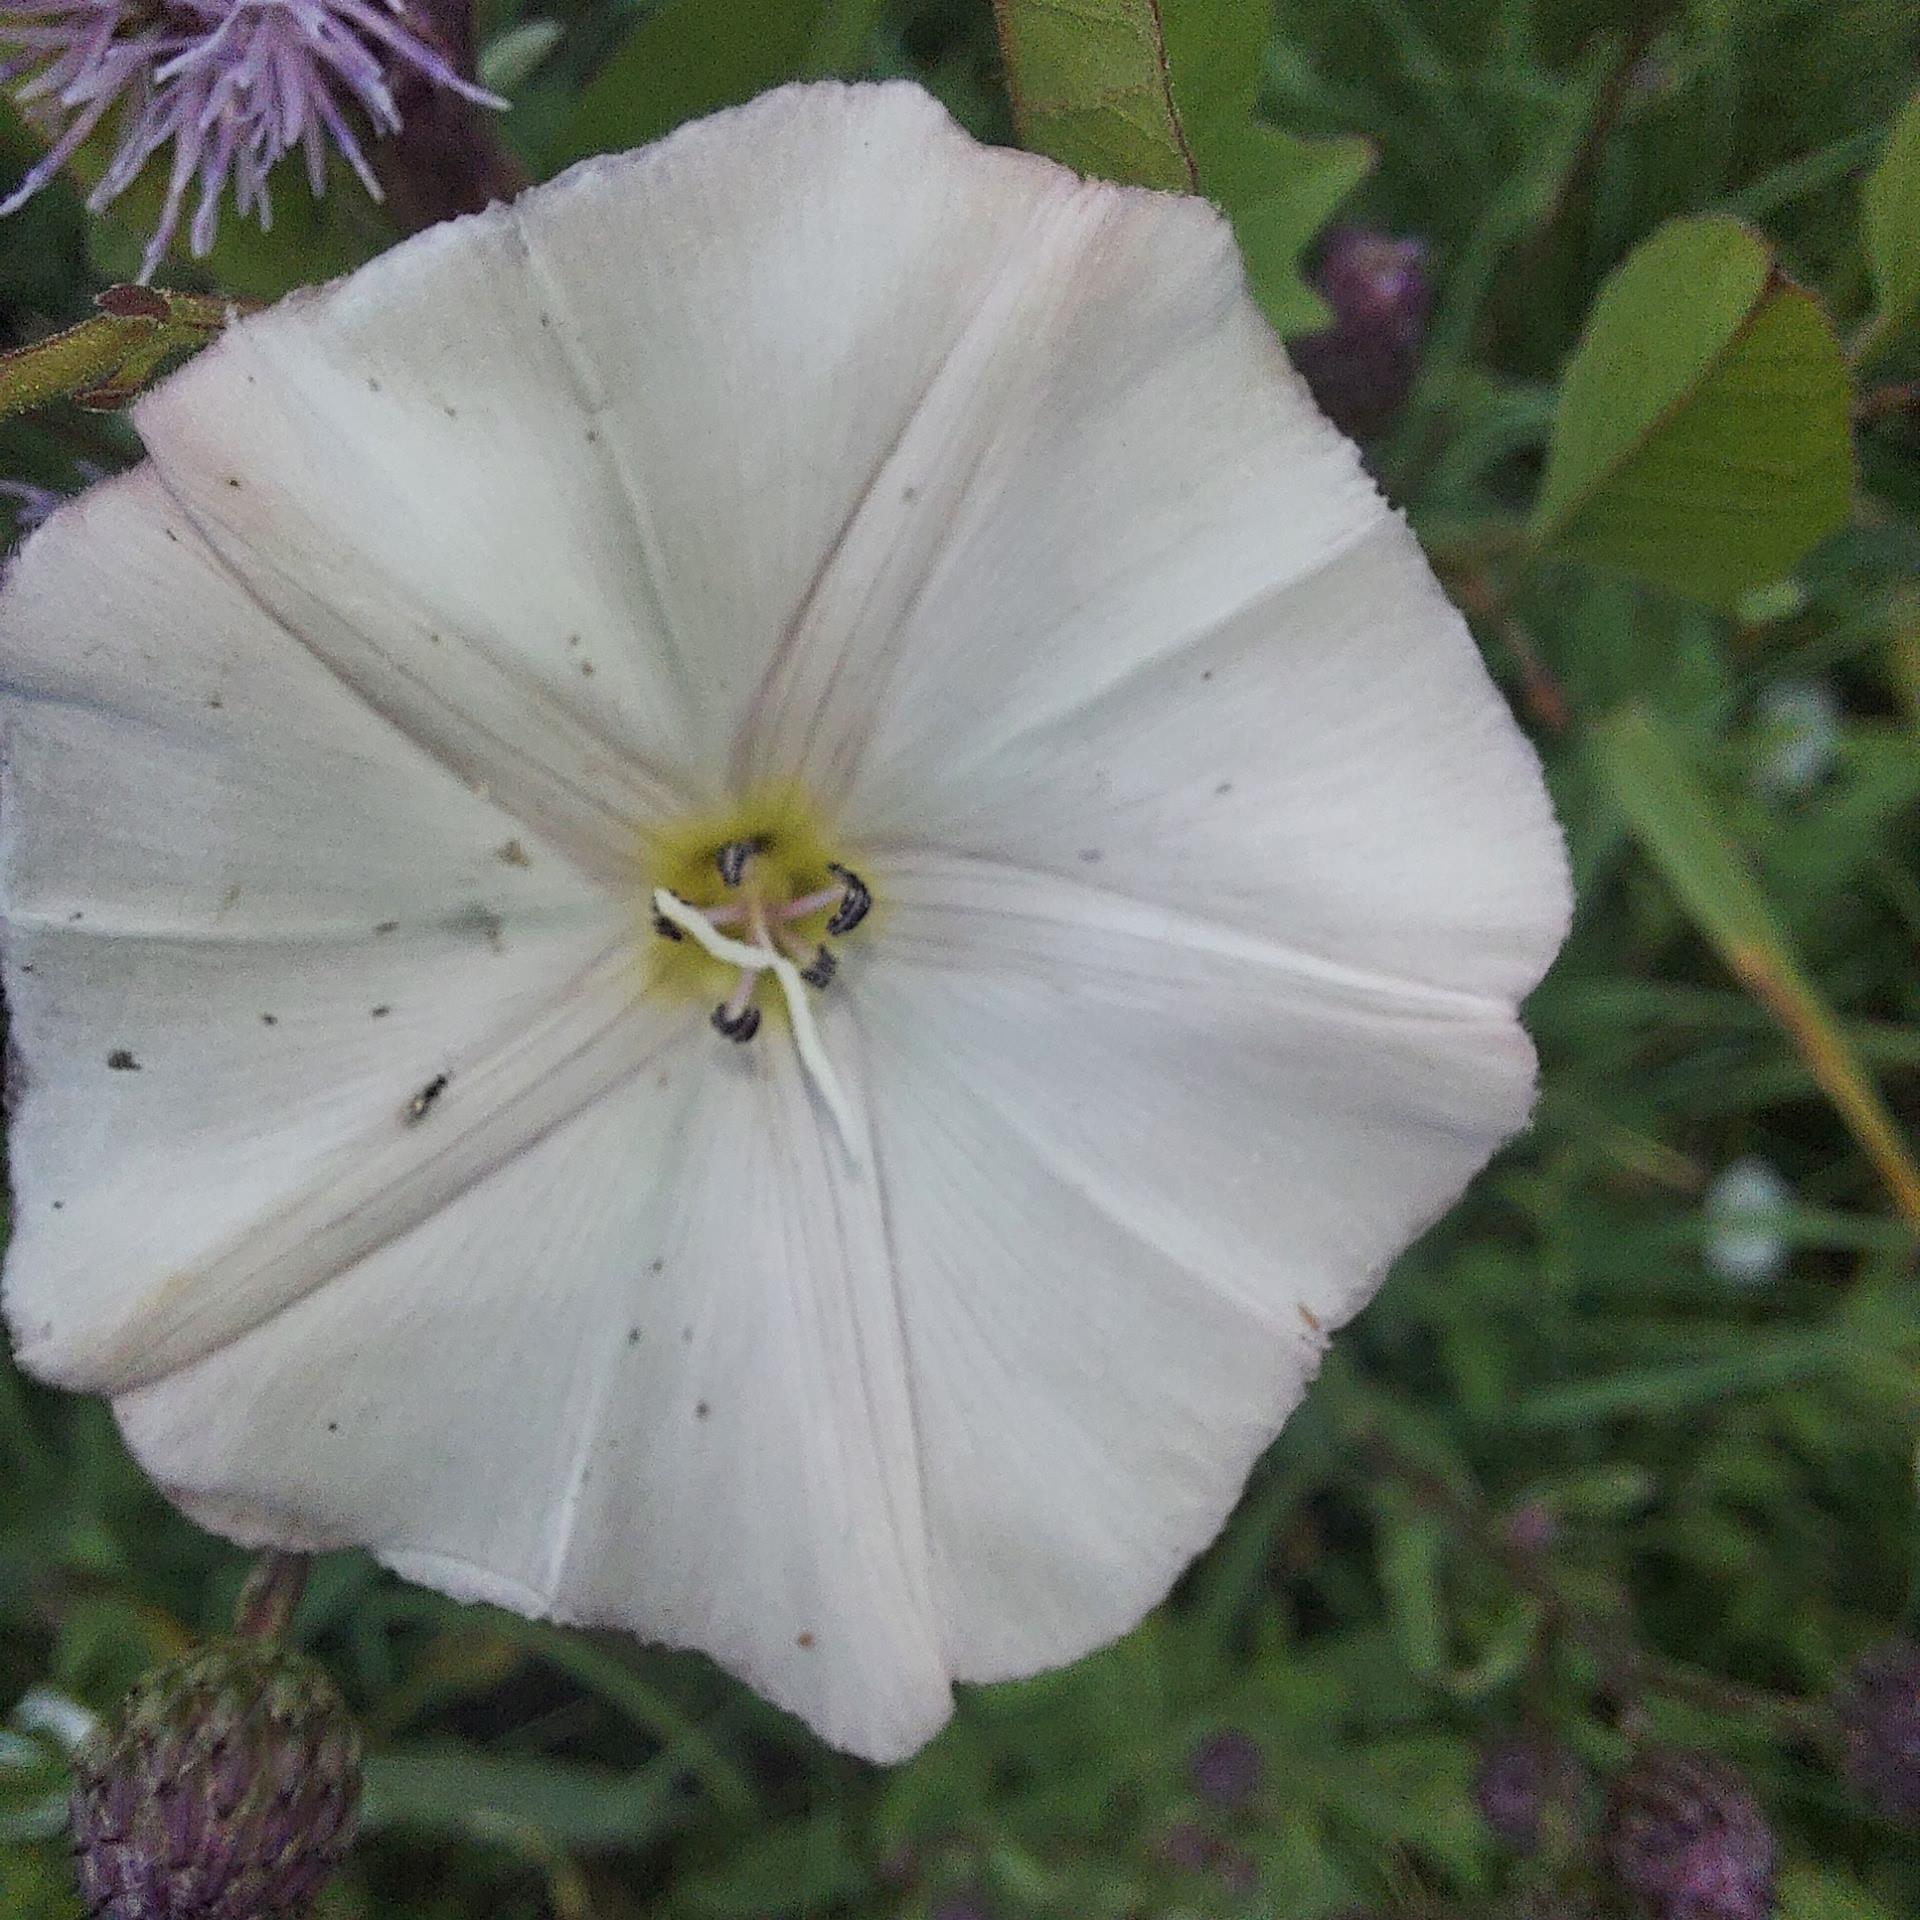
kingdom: Plantae
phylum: Tracheophyta
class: Magnoliopsida
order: Solanales
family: Convolvulaceae
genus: Convolvulus
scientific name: Convolvulus arvensis
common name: Field bindweed
